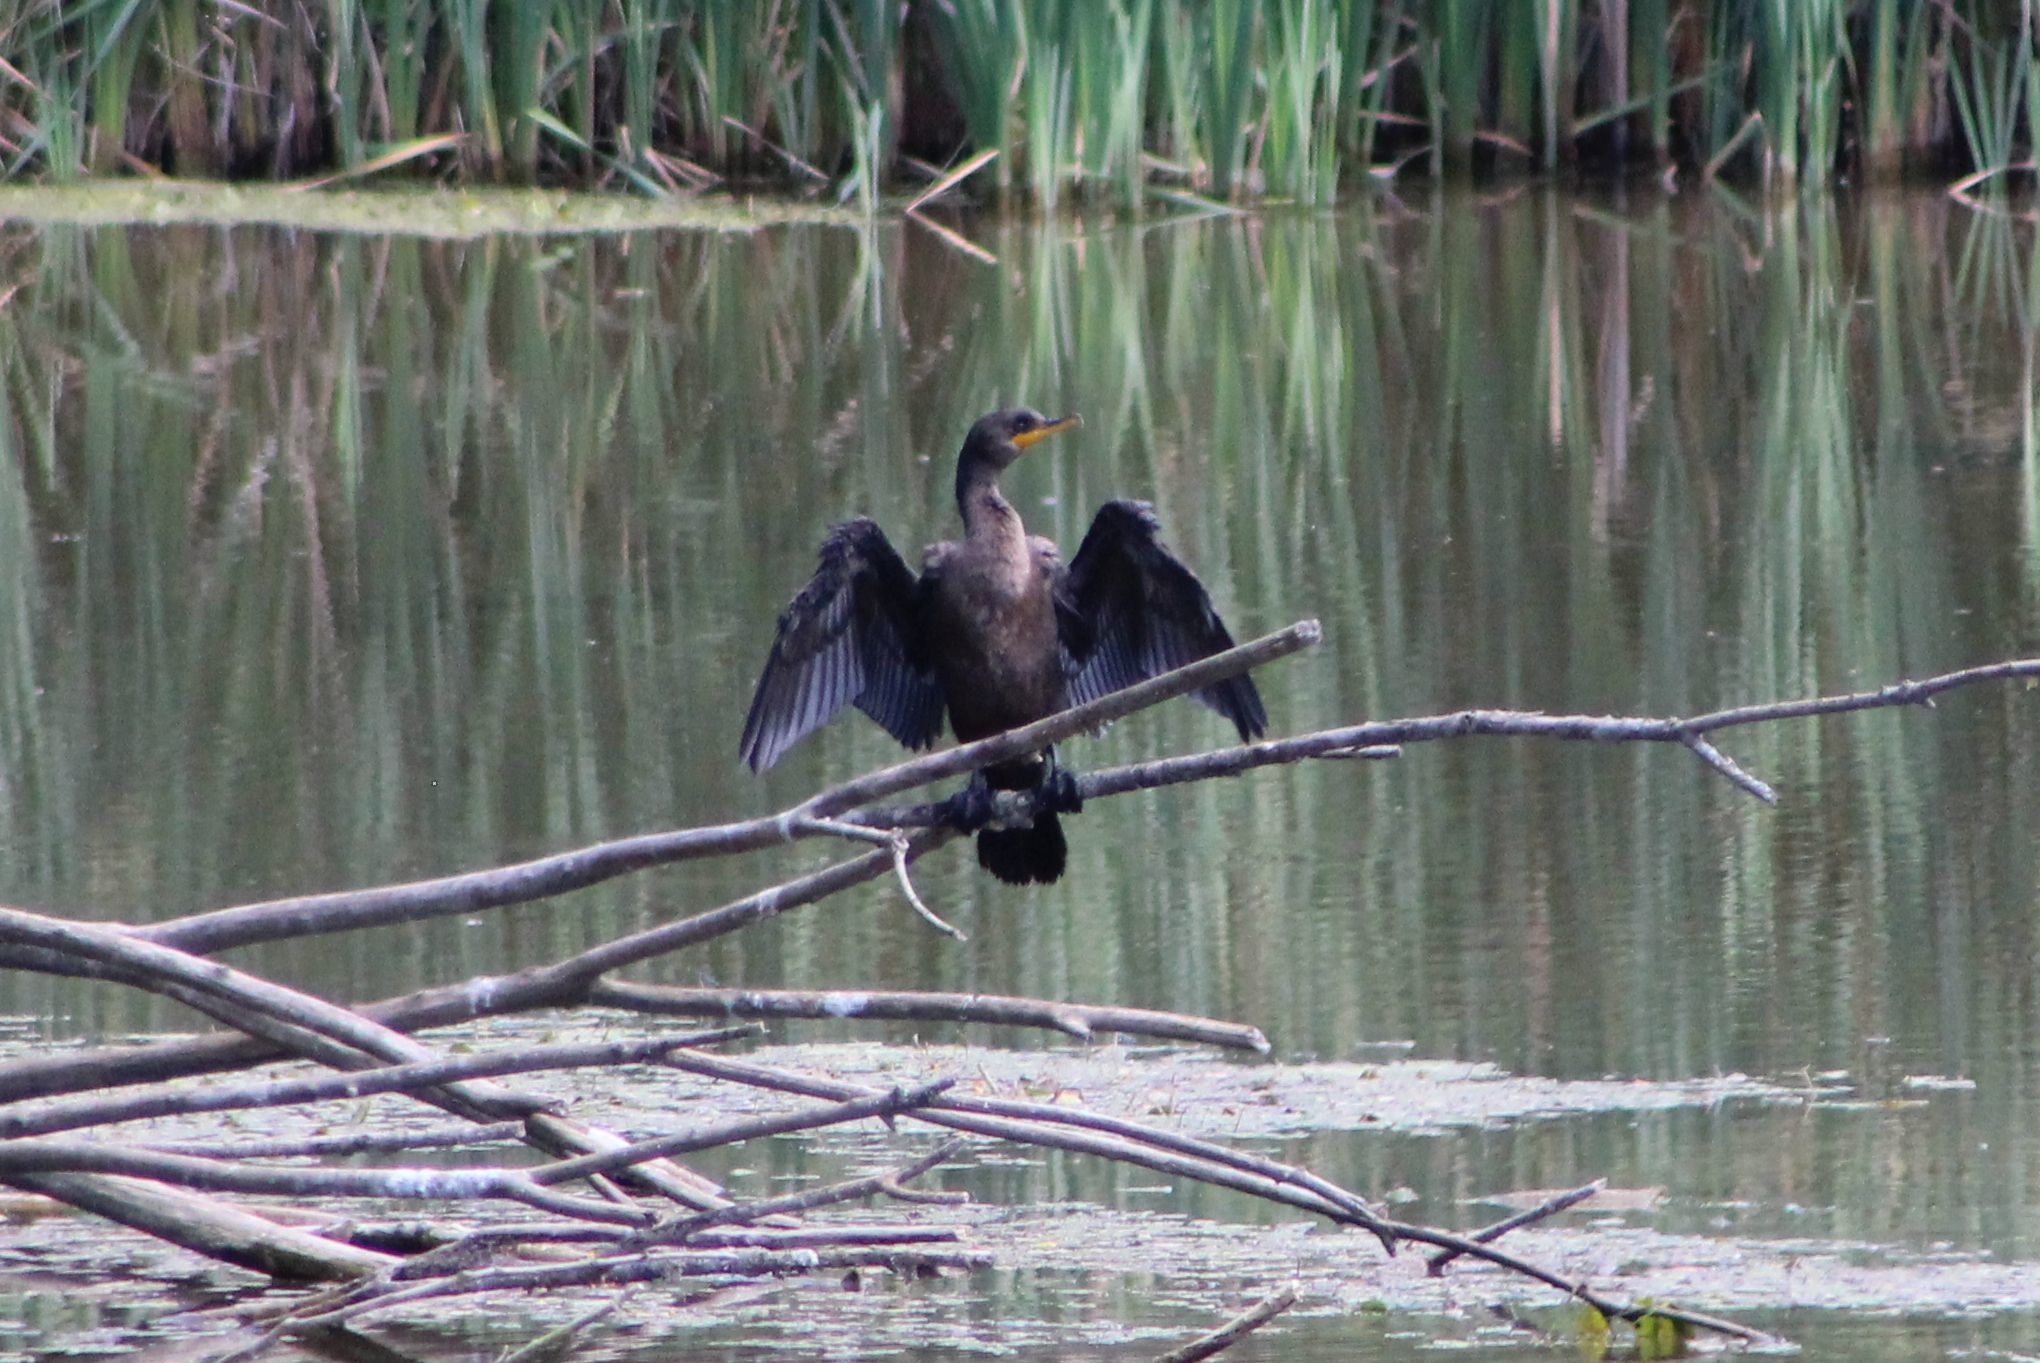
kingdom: Animalia
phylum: Chordata
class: Aves
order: Suliformes
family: Phalacrocoracidae
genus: Phalacrocorax
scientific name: Phalacrocorax auritus
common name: Double-crested cormorant
